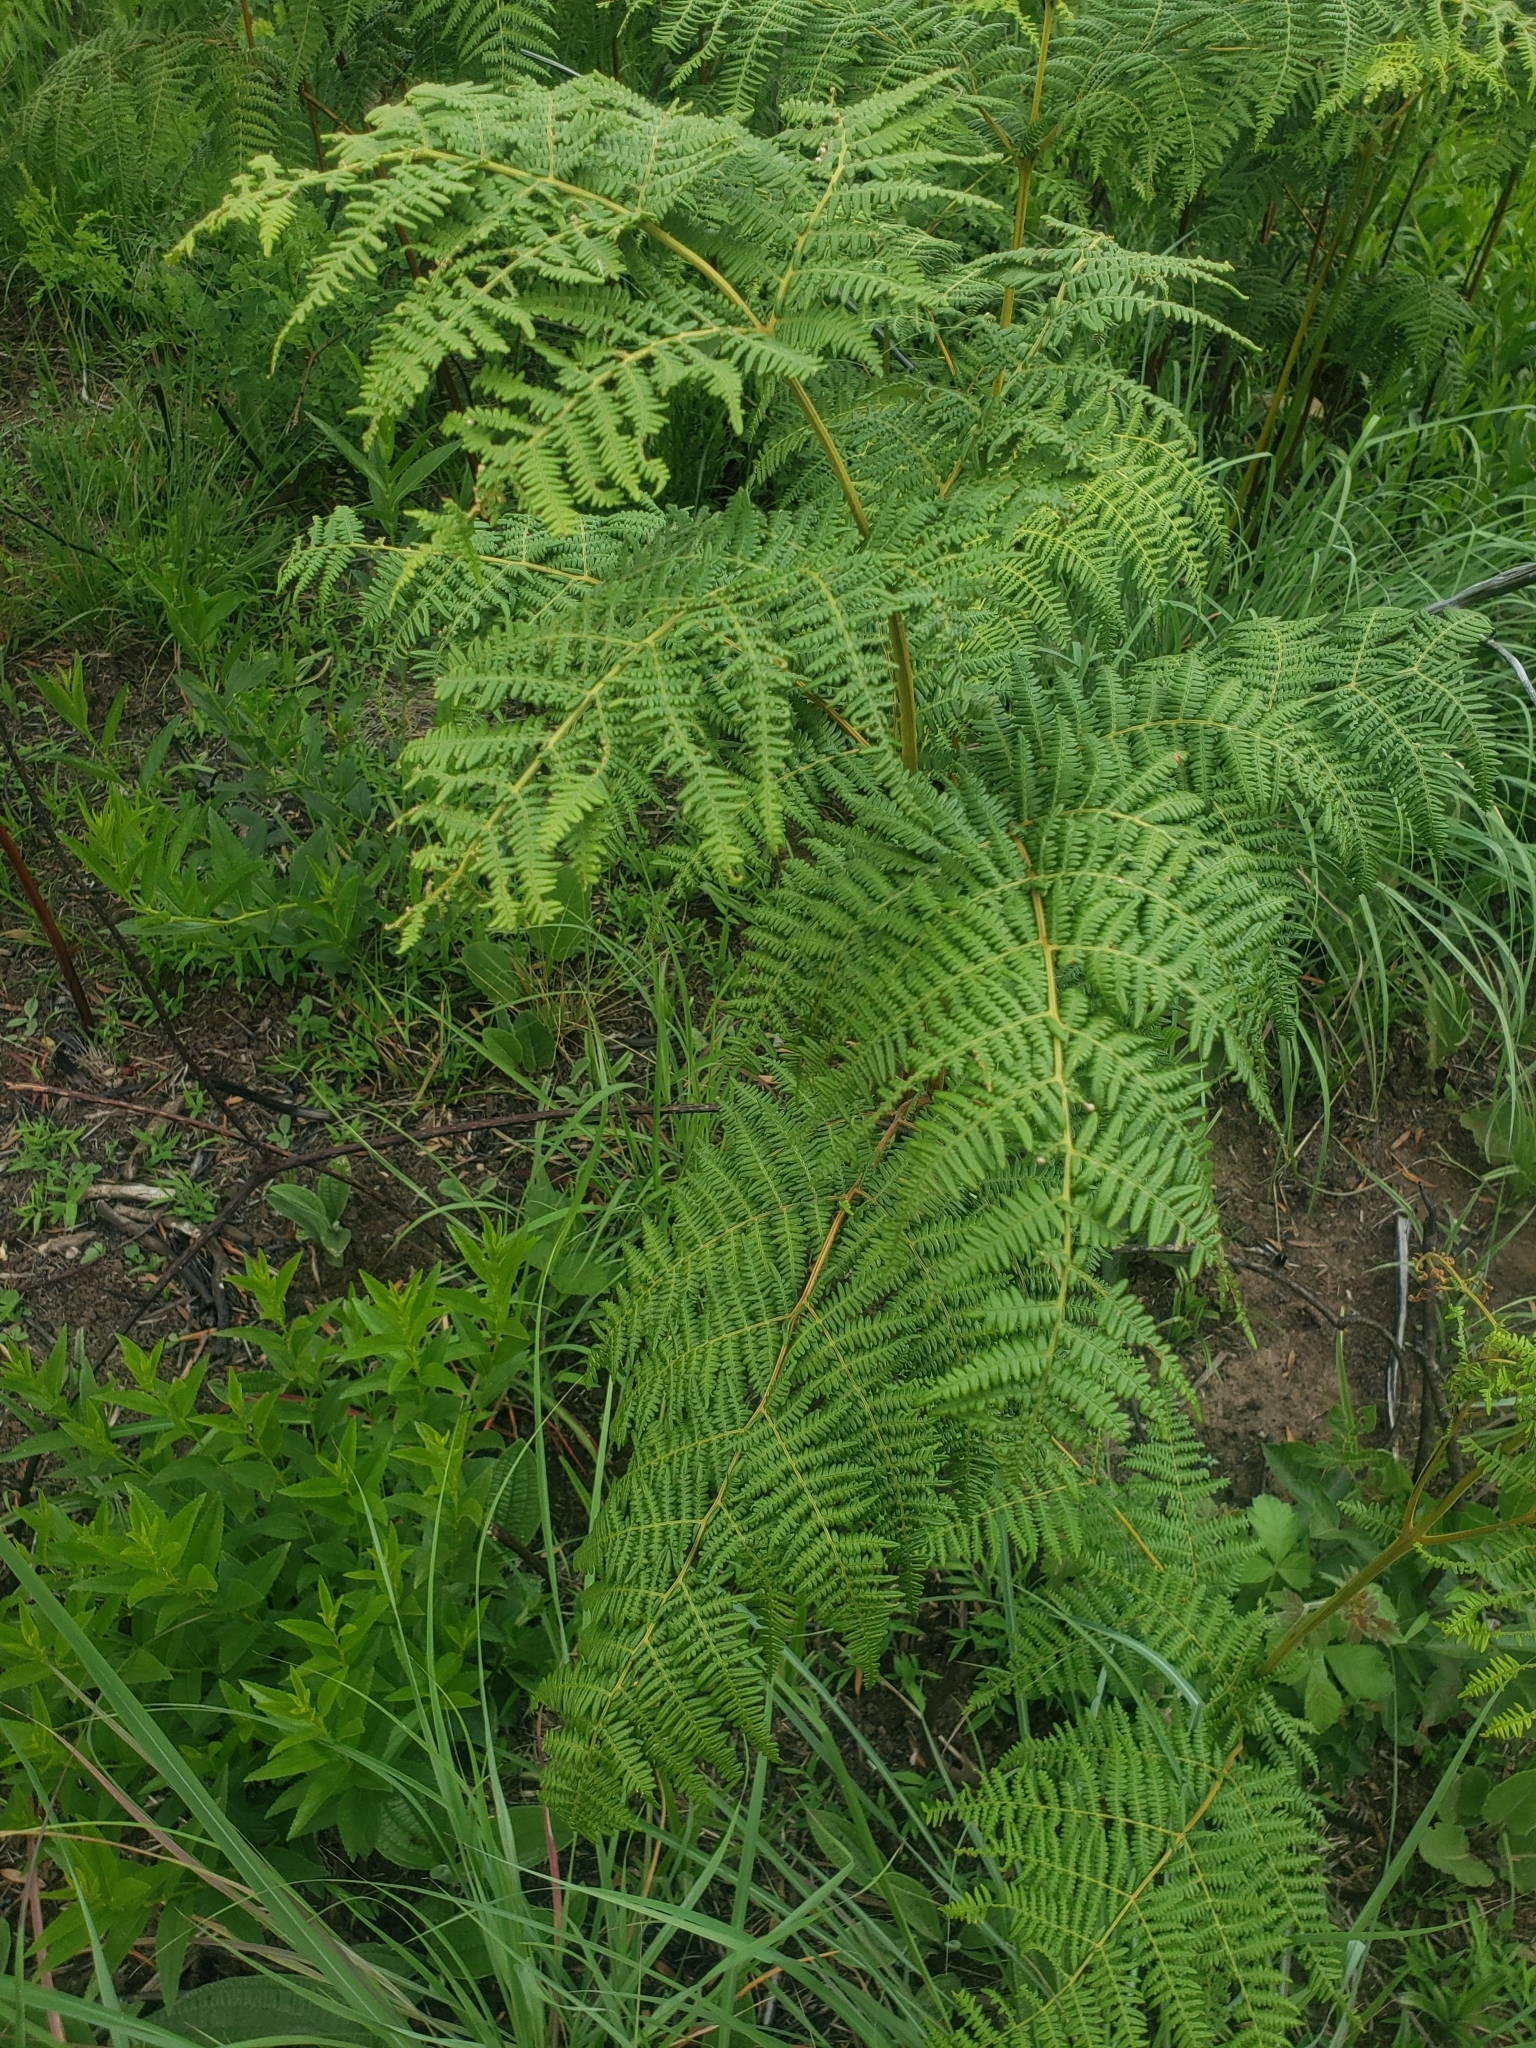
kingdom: Plantae
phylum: Tracheophyta
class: Polypodiopsida
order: Polypodiales
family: Dennstaedtiaceae
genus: Pteridium
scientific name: Pteridium aquilinum
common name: Bracken
